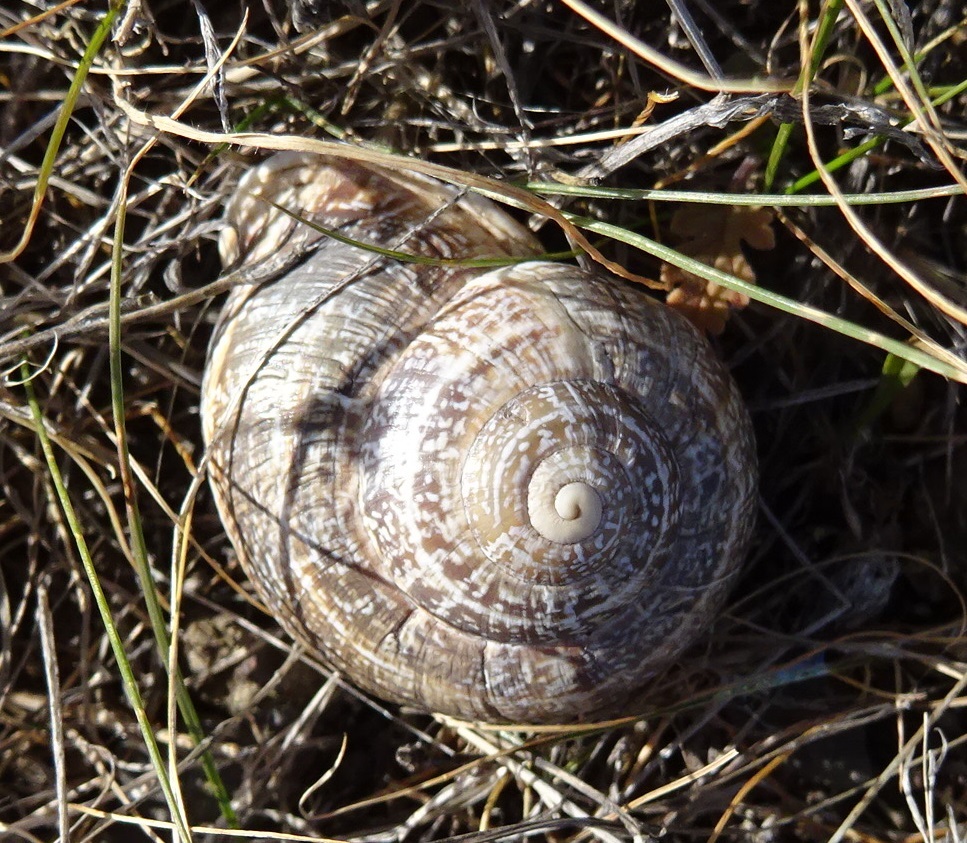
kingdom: Animalia
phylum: Mollusca
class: Gastropoda
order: Stylommatophora
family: Helicidae
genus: Otala
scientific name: Otala lactea
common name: Milk snail
